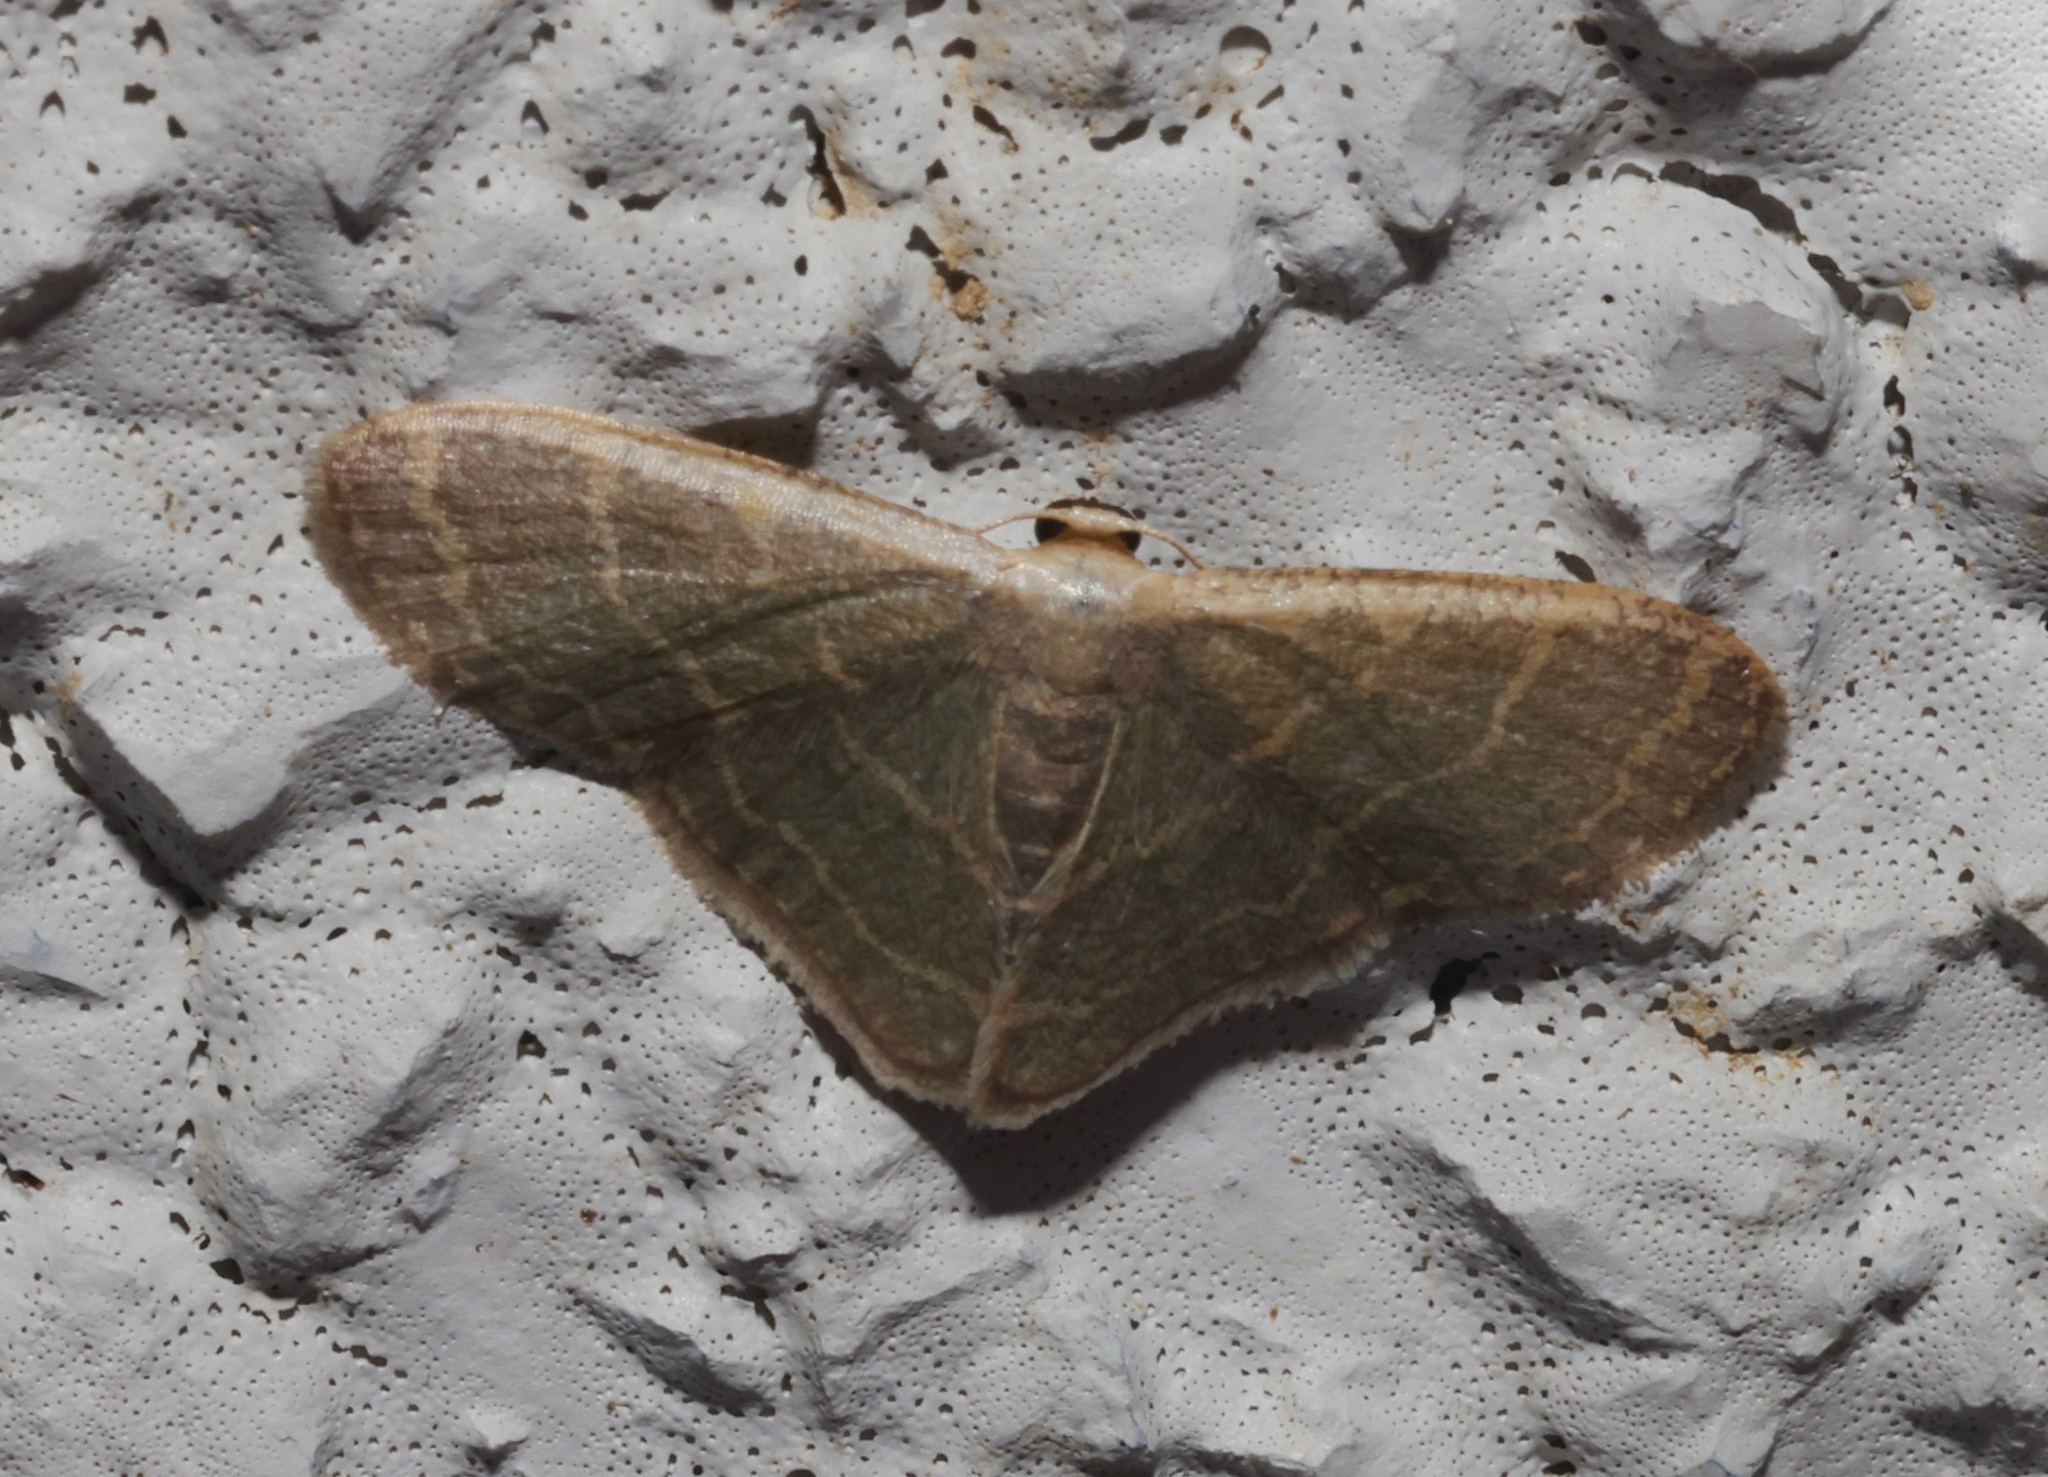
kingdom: Animalia
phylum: Arthropoda
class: Insecta
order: Lepidoptera
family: Geometridae
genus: Lophophleps
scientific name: Lophophleps triangularis
